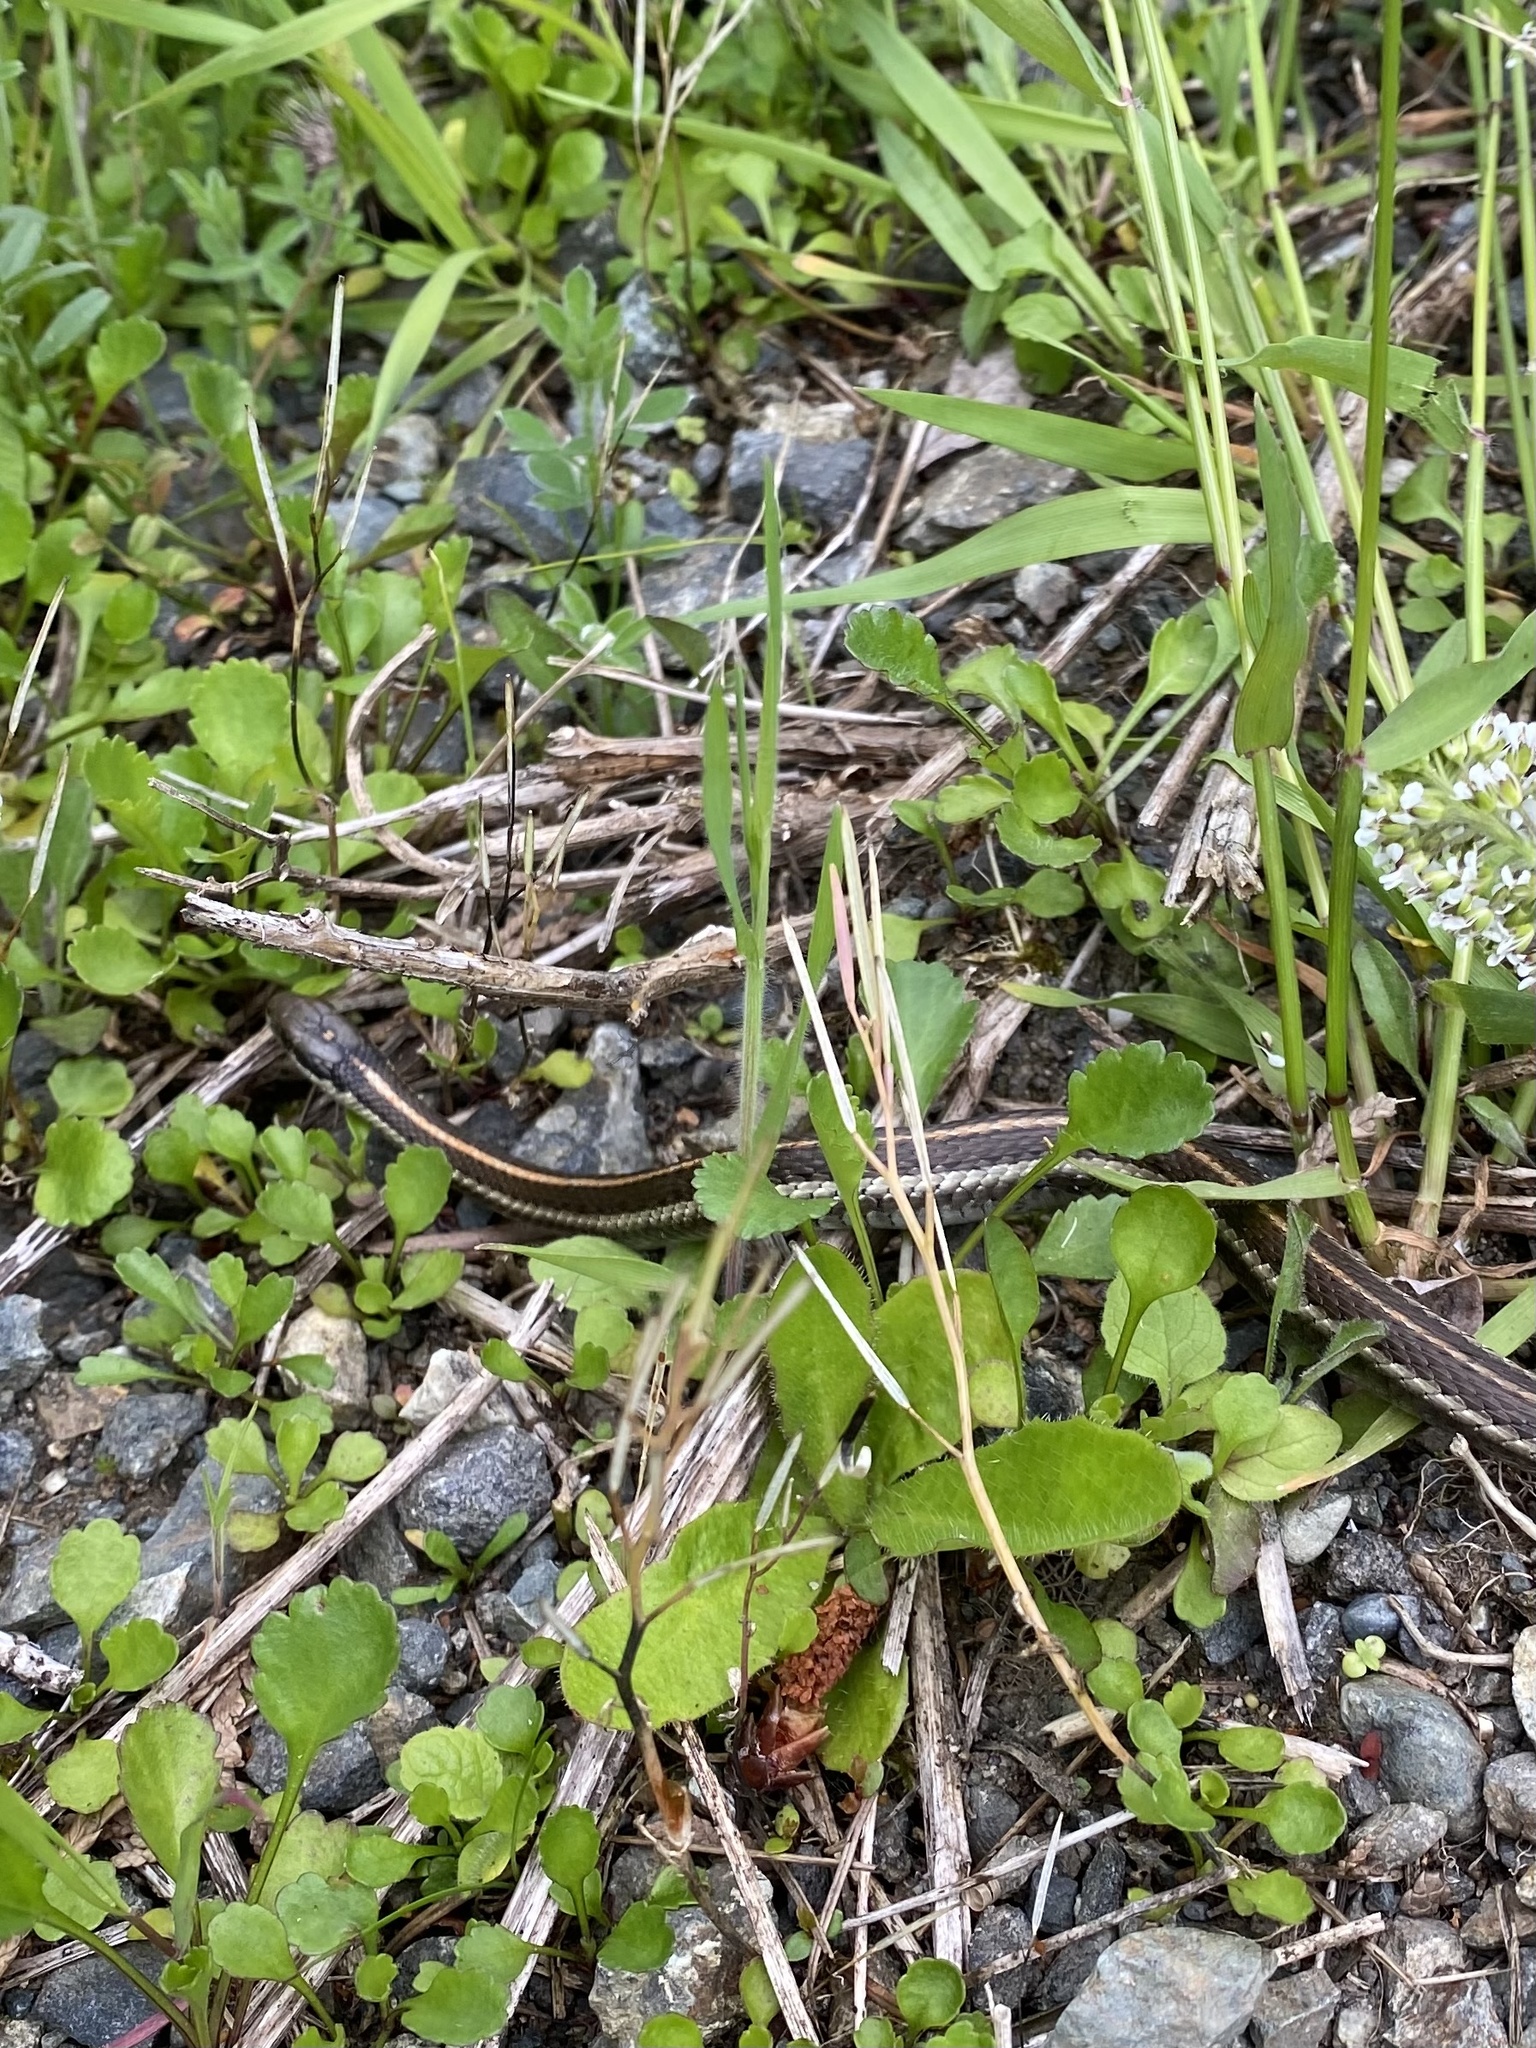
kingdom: Animalia
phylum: Chordata
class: Squamata
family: Colubridae
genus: Thamnophis
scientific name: Thamnophis ordinoides
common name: Northwestern garter snake
